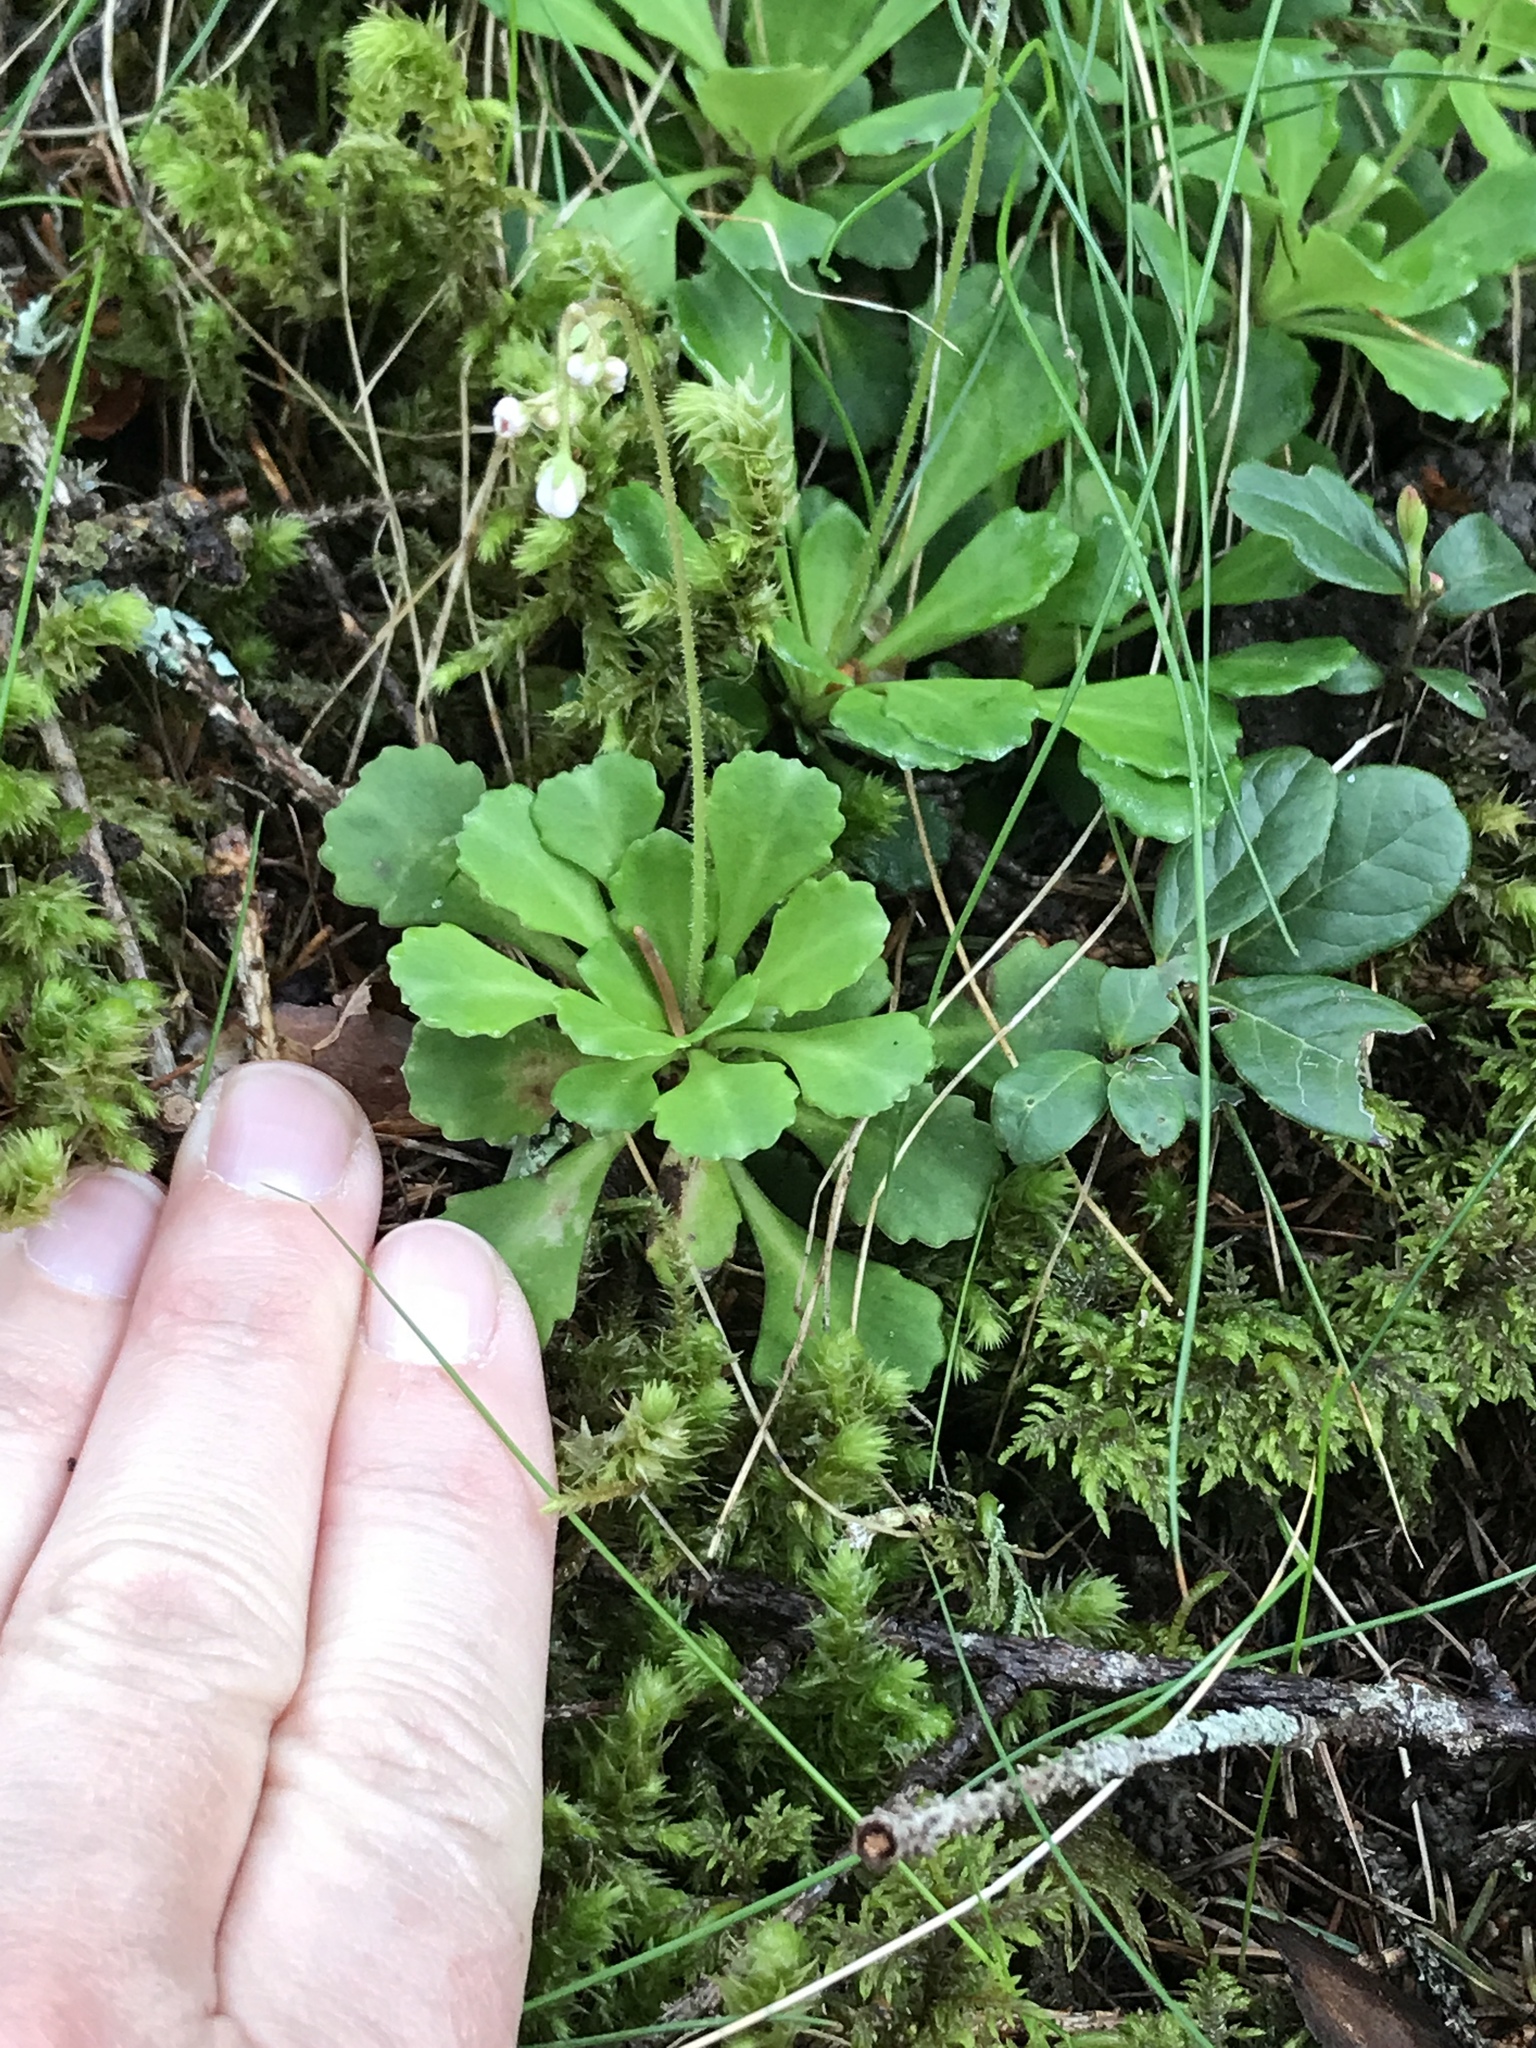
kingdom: Plantae
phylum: Tracheophyta
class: Magnoliopsida
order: Saxifragales
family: Saxifragaceae
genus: Saxifraga
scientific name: Saxifraga cuneifolia
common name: Lesser londonpride
